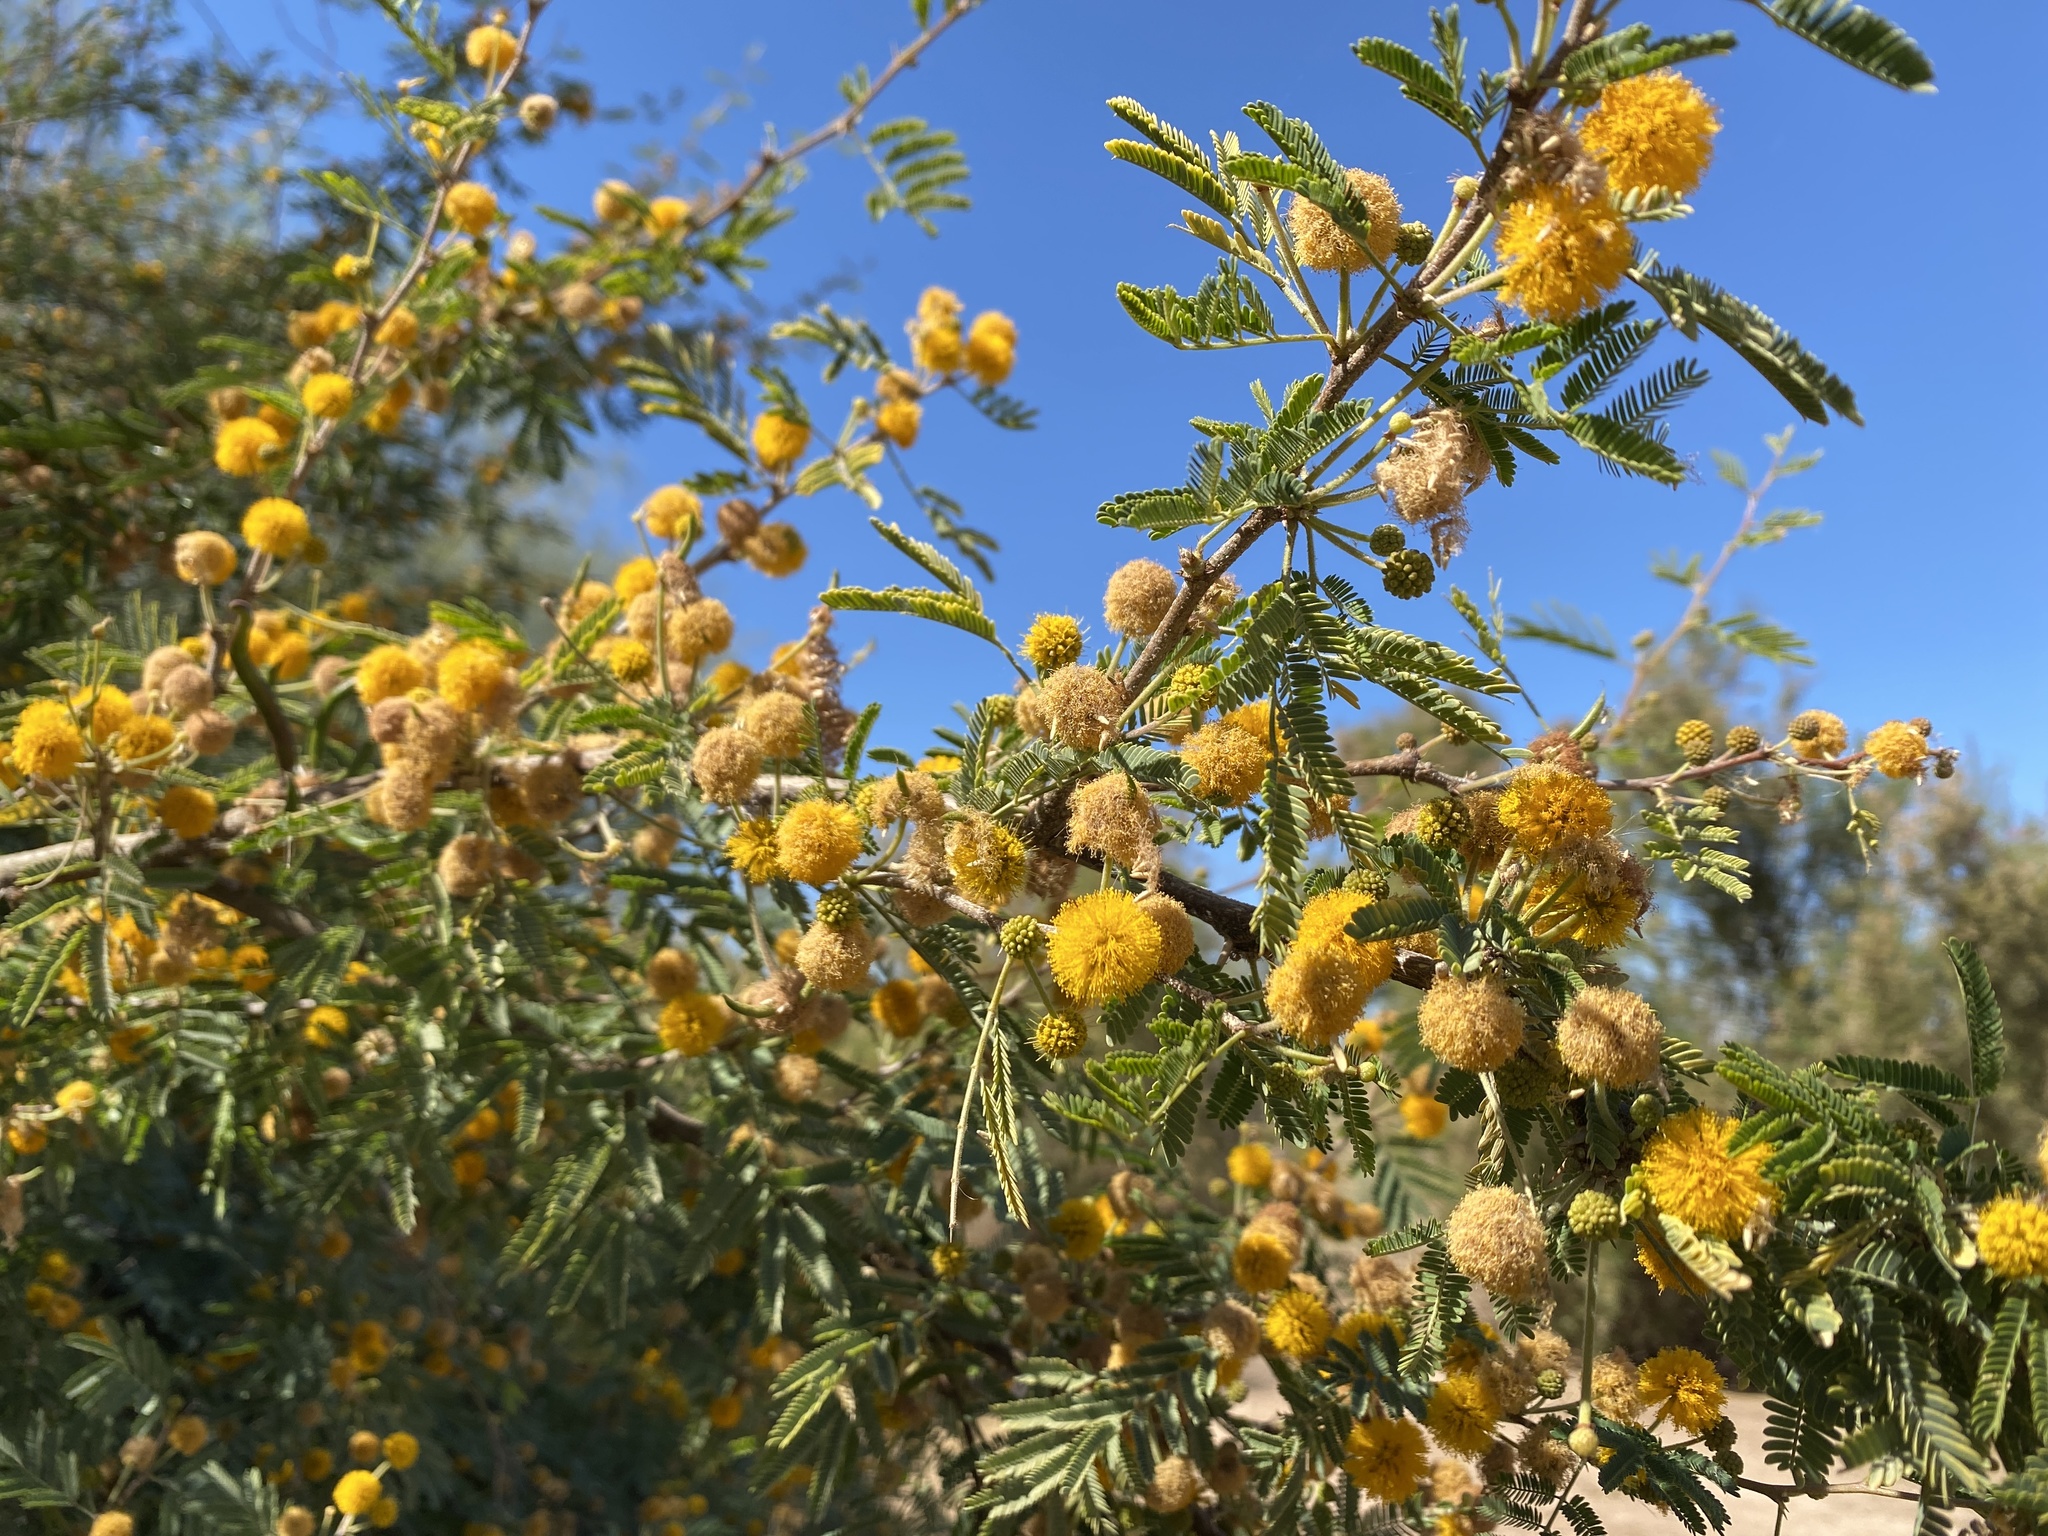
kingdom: Plantae
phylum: Tracheophyta
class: Magnoliopsida
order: Fabales
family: Fabaceae
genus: Vachellia
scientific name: Vachellia farnesiana
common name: Sweet acacia
